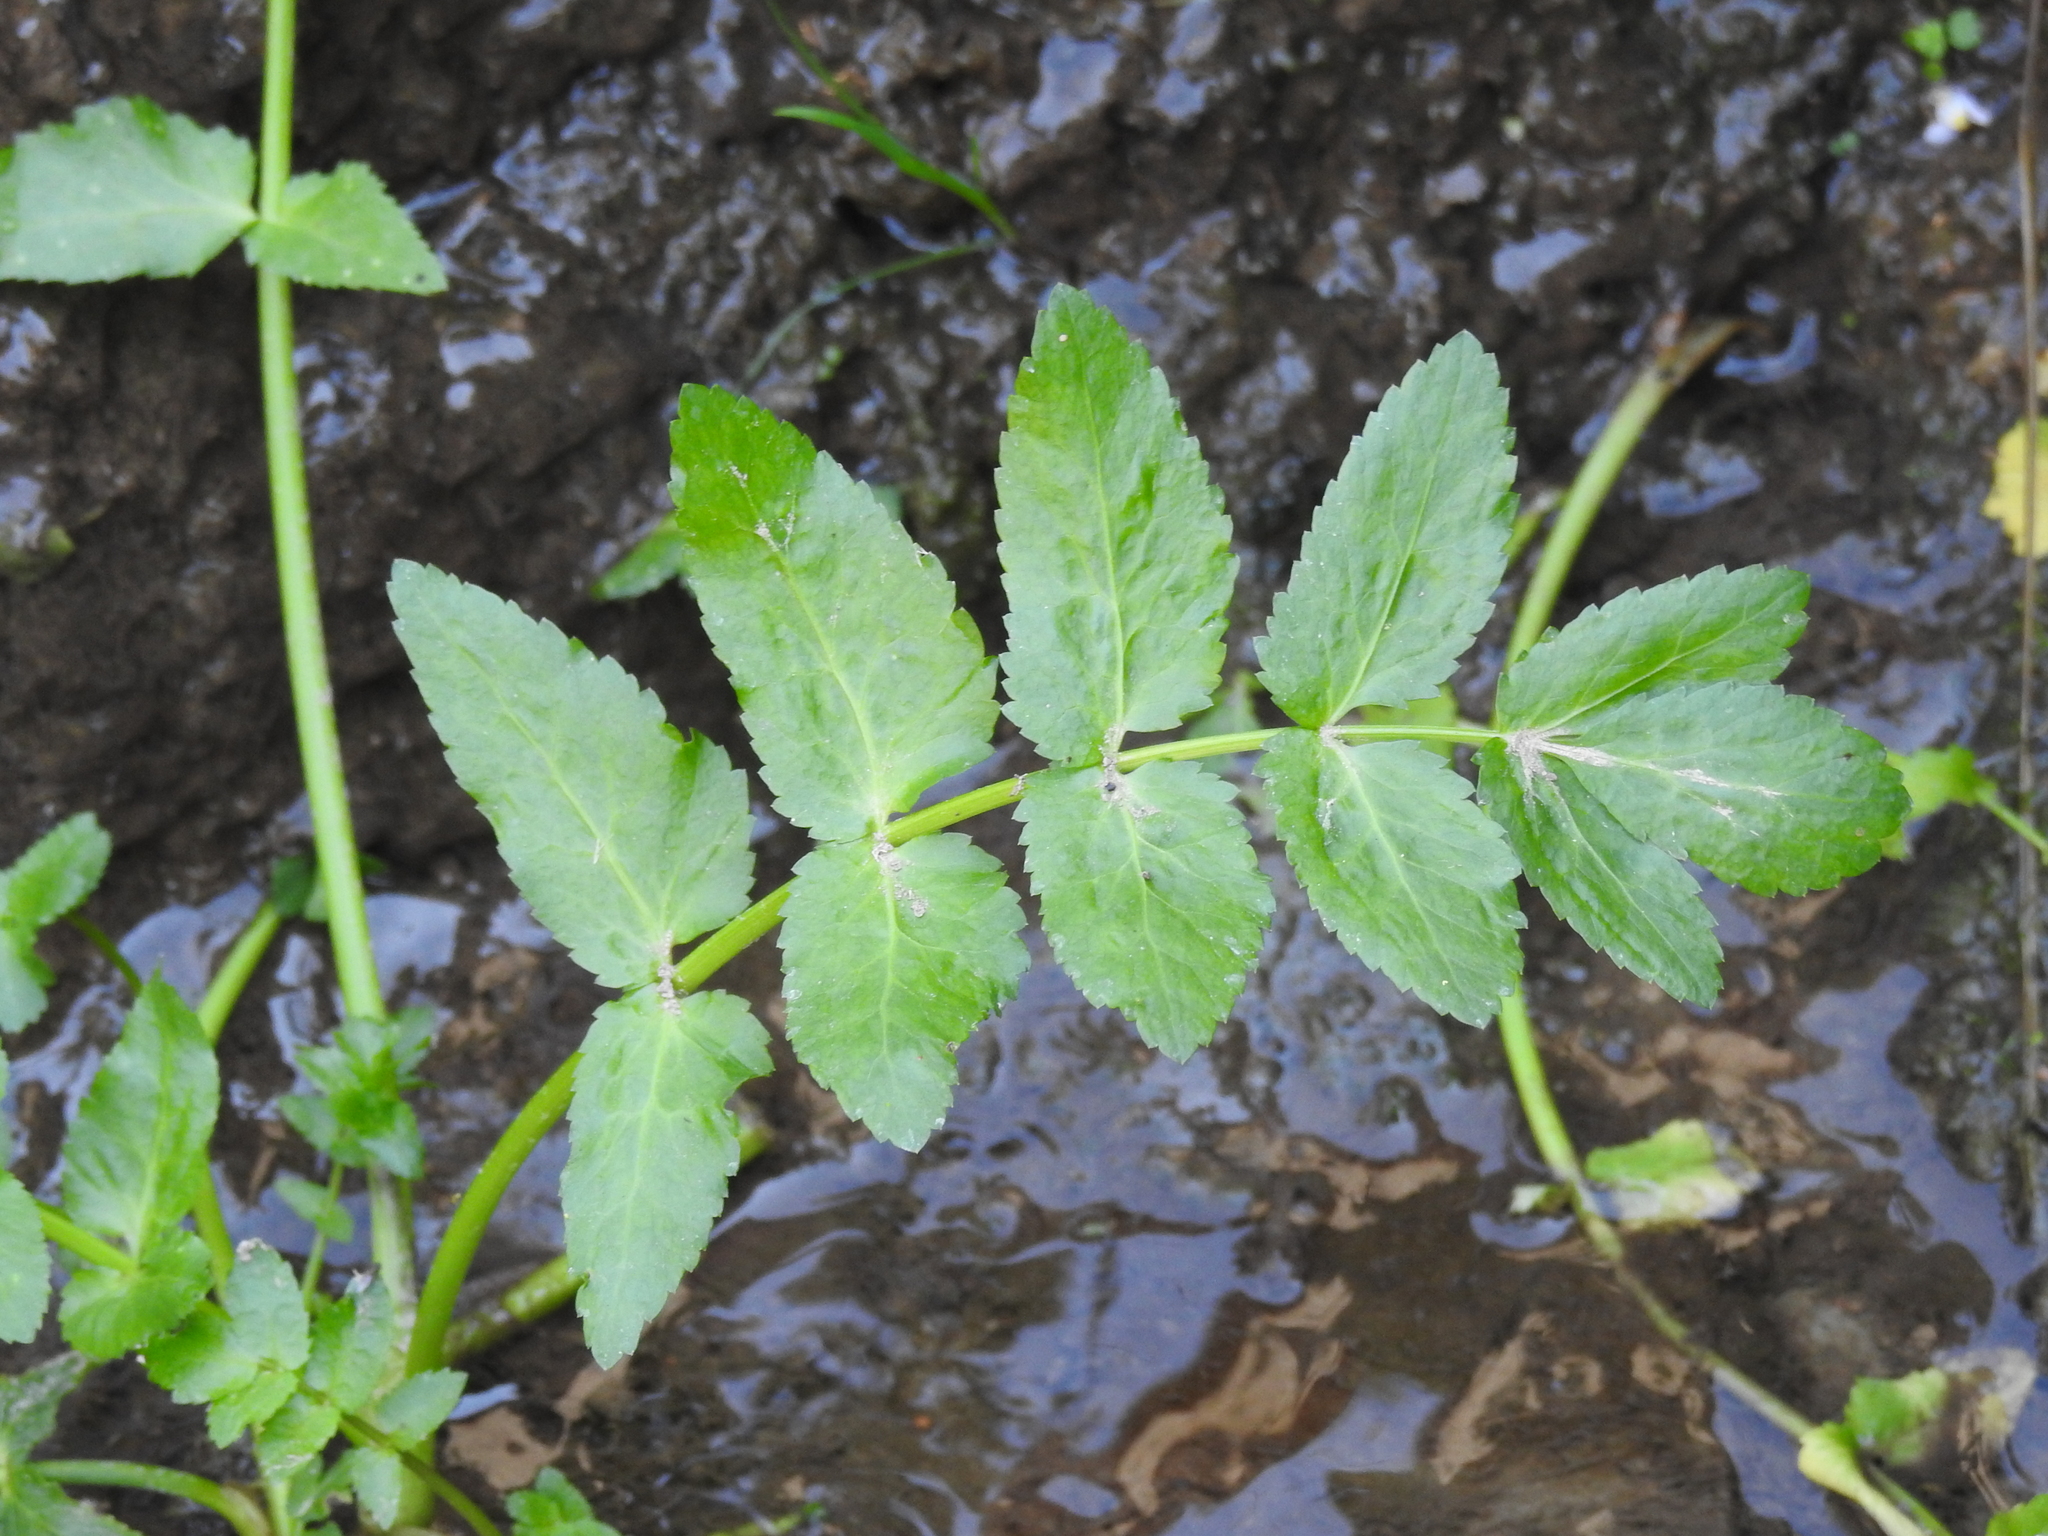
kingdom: Plantae
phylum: Tracheophyta
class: Magnoliopsida
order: Apiales
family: Apiaceae
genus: Helosciadium
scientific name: Helosciadium nodiflorum
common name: Fool's-watercress
